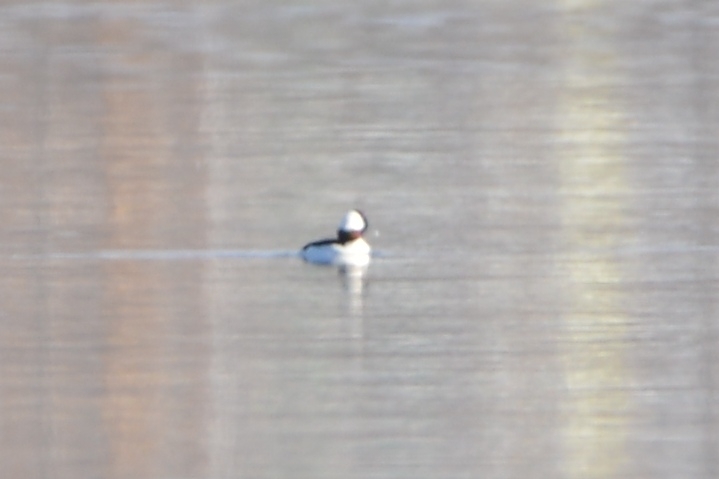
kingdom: Animalia
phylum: Chordata
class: Aves
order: Anseriformes
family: Anatidae
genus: Bucephala
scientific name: Bucephala albeola
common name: Bufflehead
